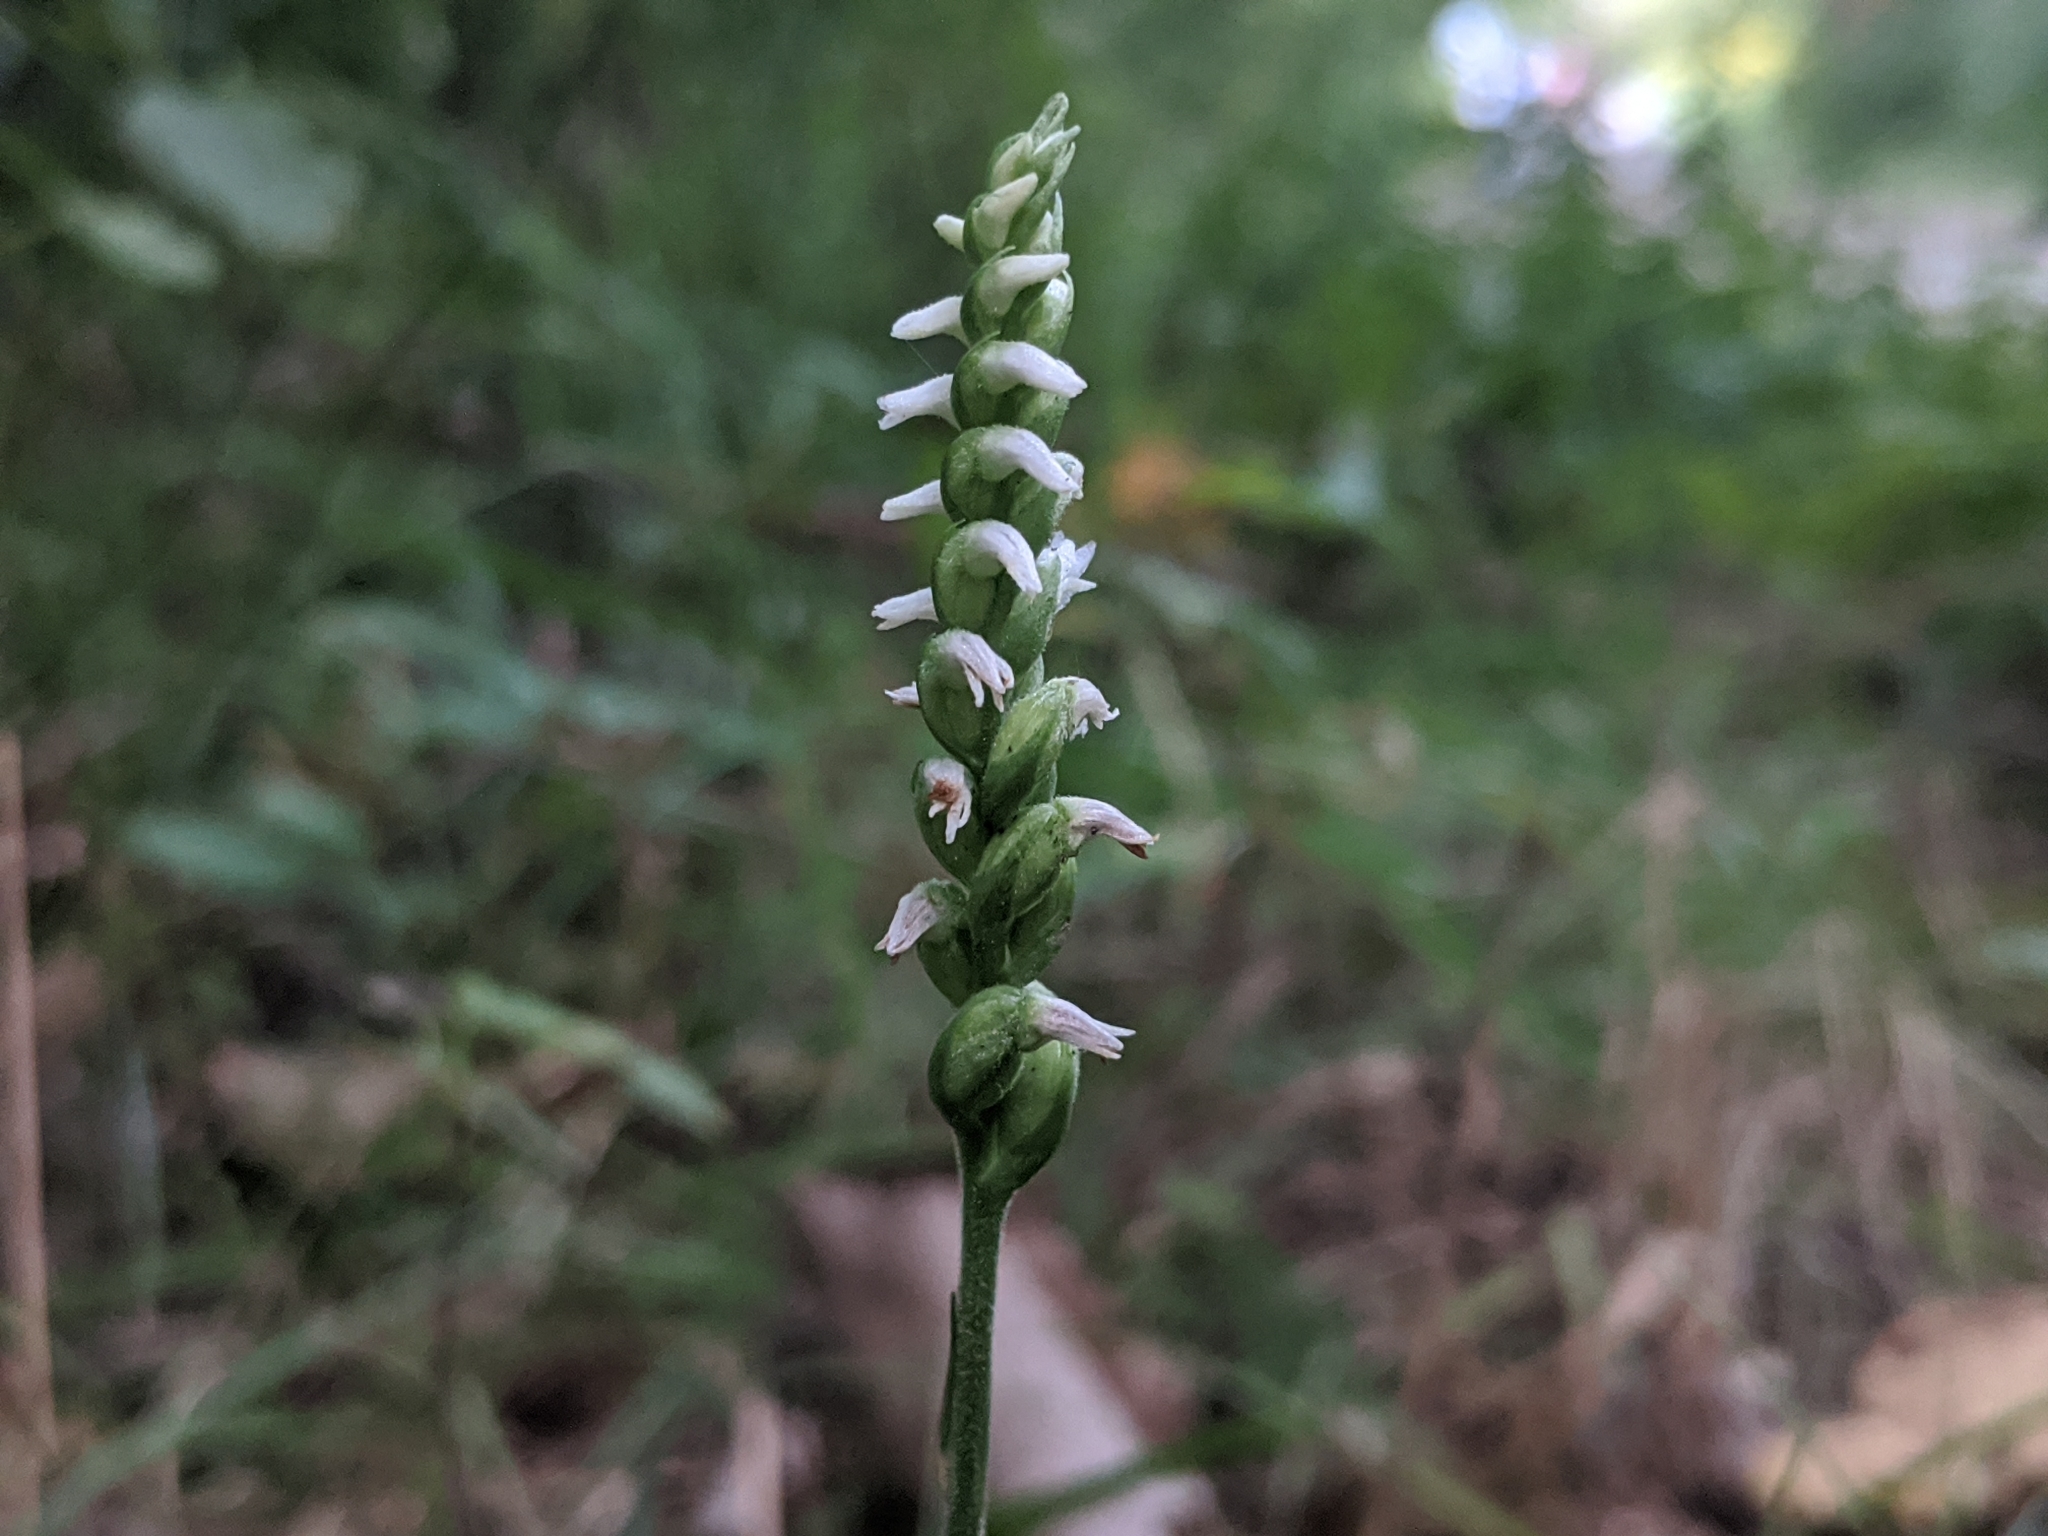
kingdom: Plantae
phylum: Tracheophyta
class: Liliopsida
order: Asparagales
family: Orchidaceae
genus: Spiranthes
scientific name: Spiranthes ovalis
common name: October ladies'-tresses
